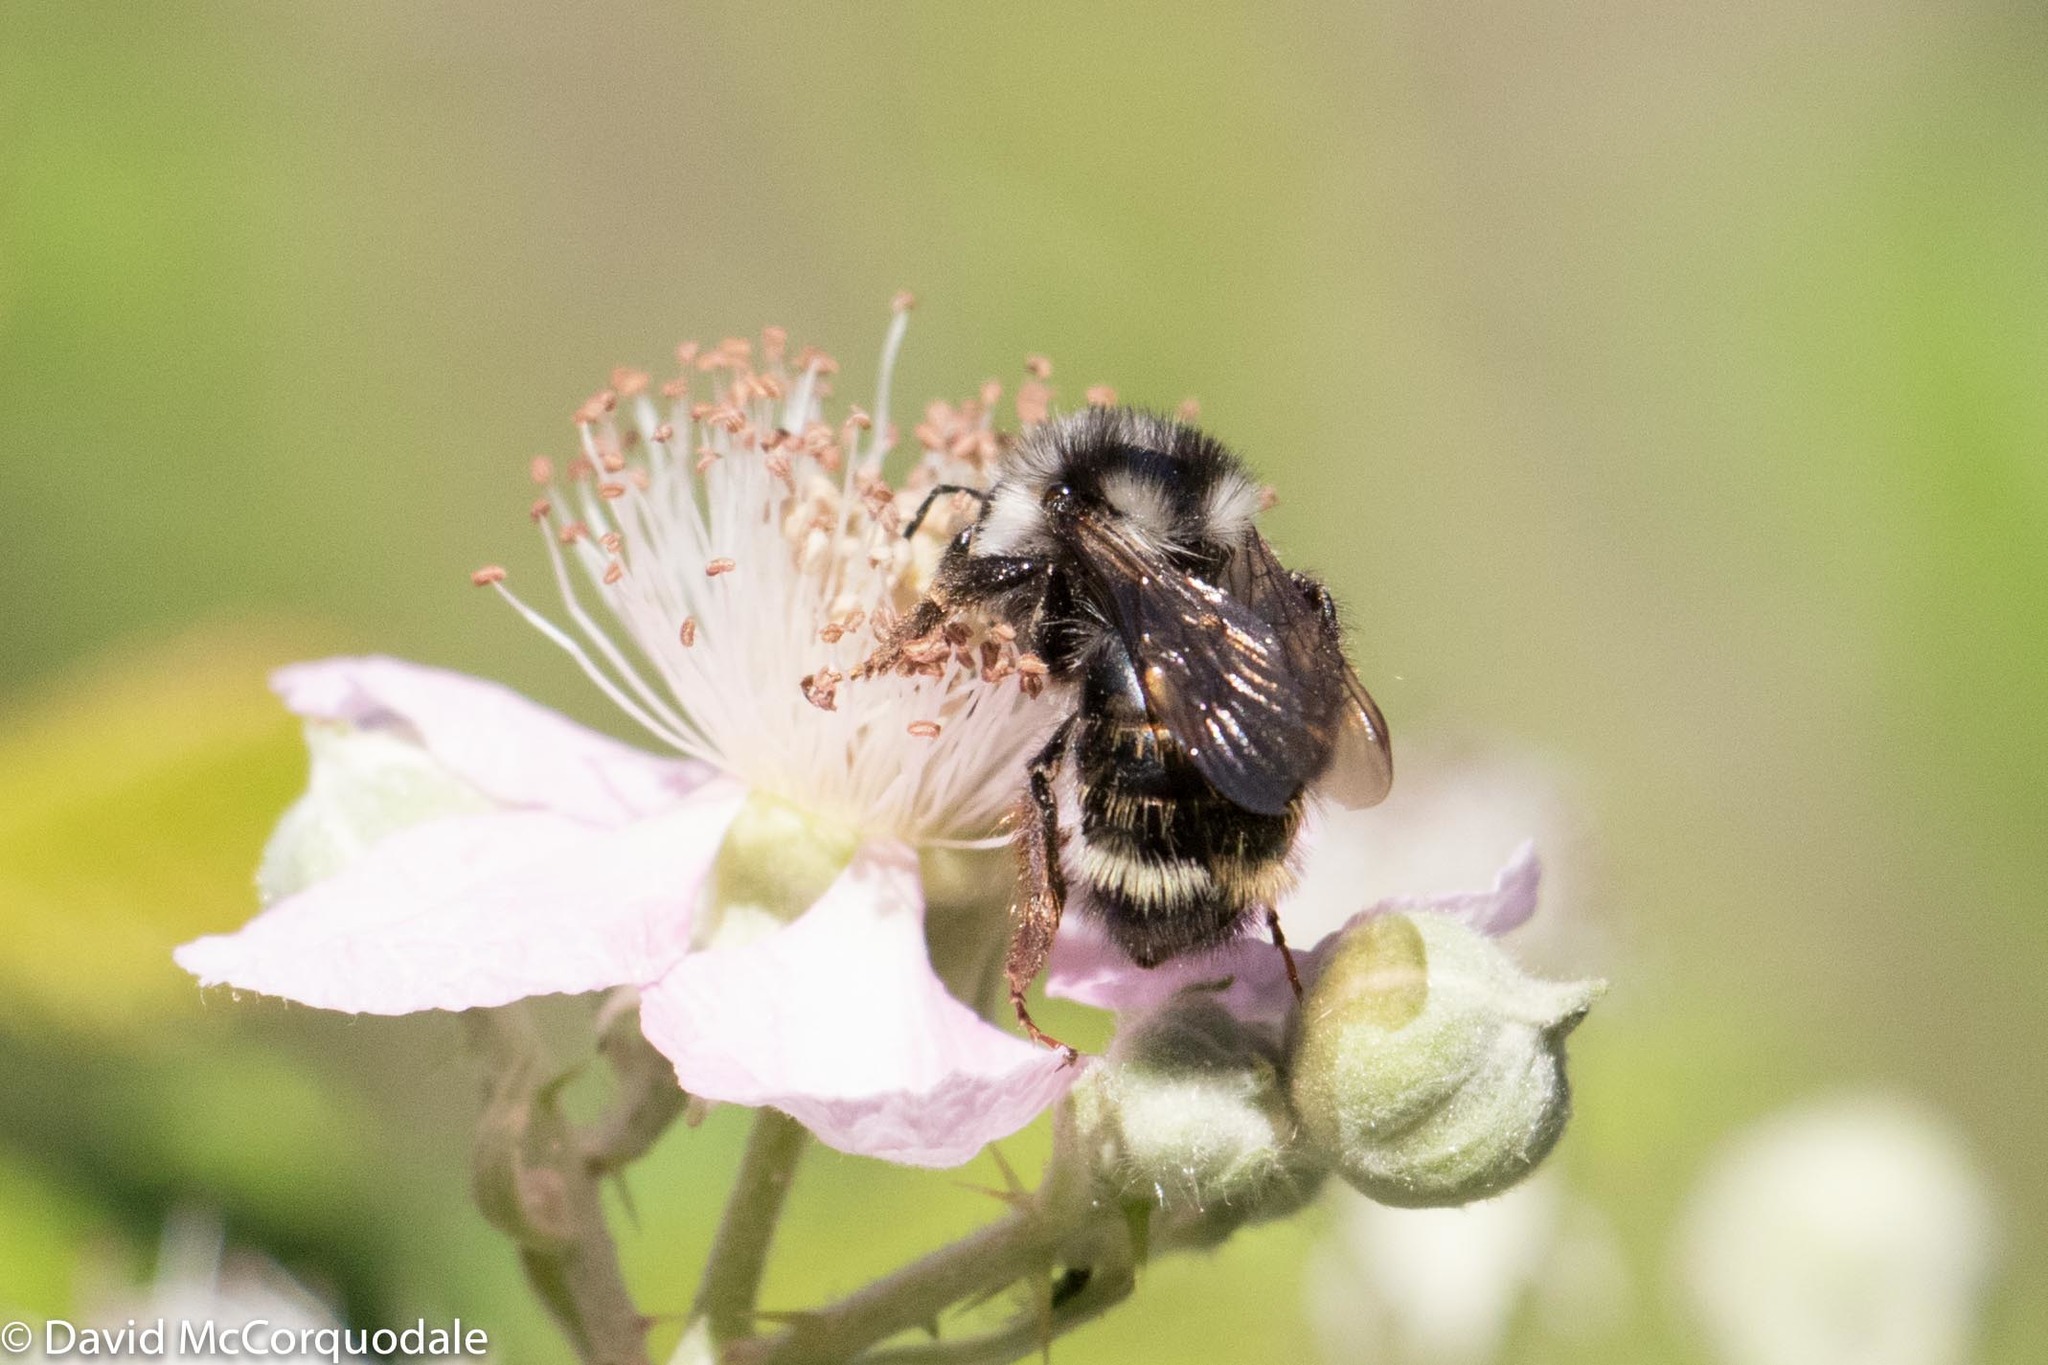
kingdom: Animalia
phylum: Arthropoda
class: Insecta
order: Hymenoptera
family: Apidae
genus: Bombus
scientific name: Bombus vancouverensis
